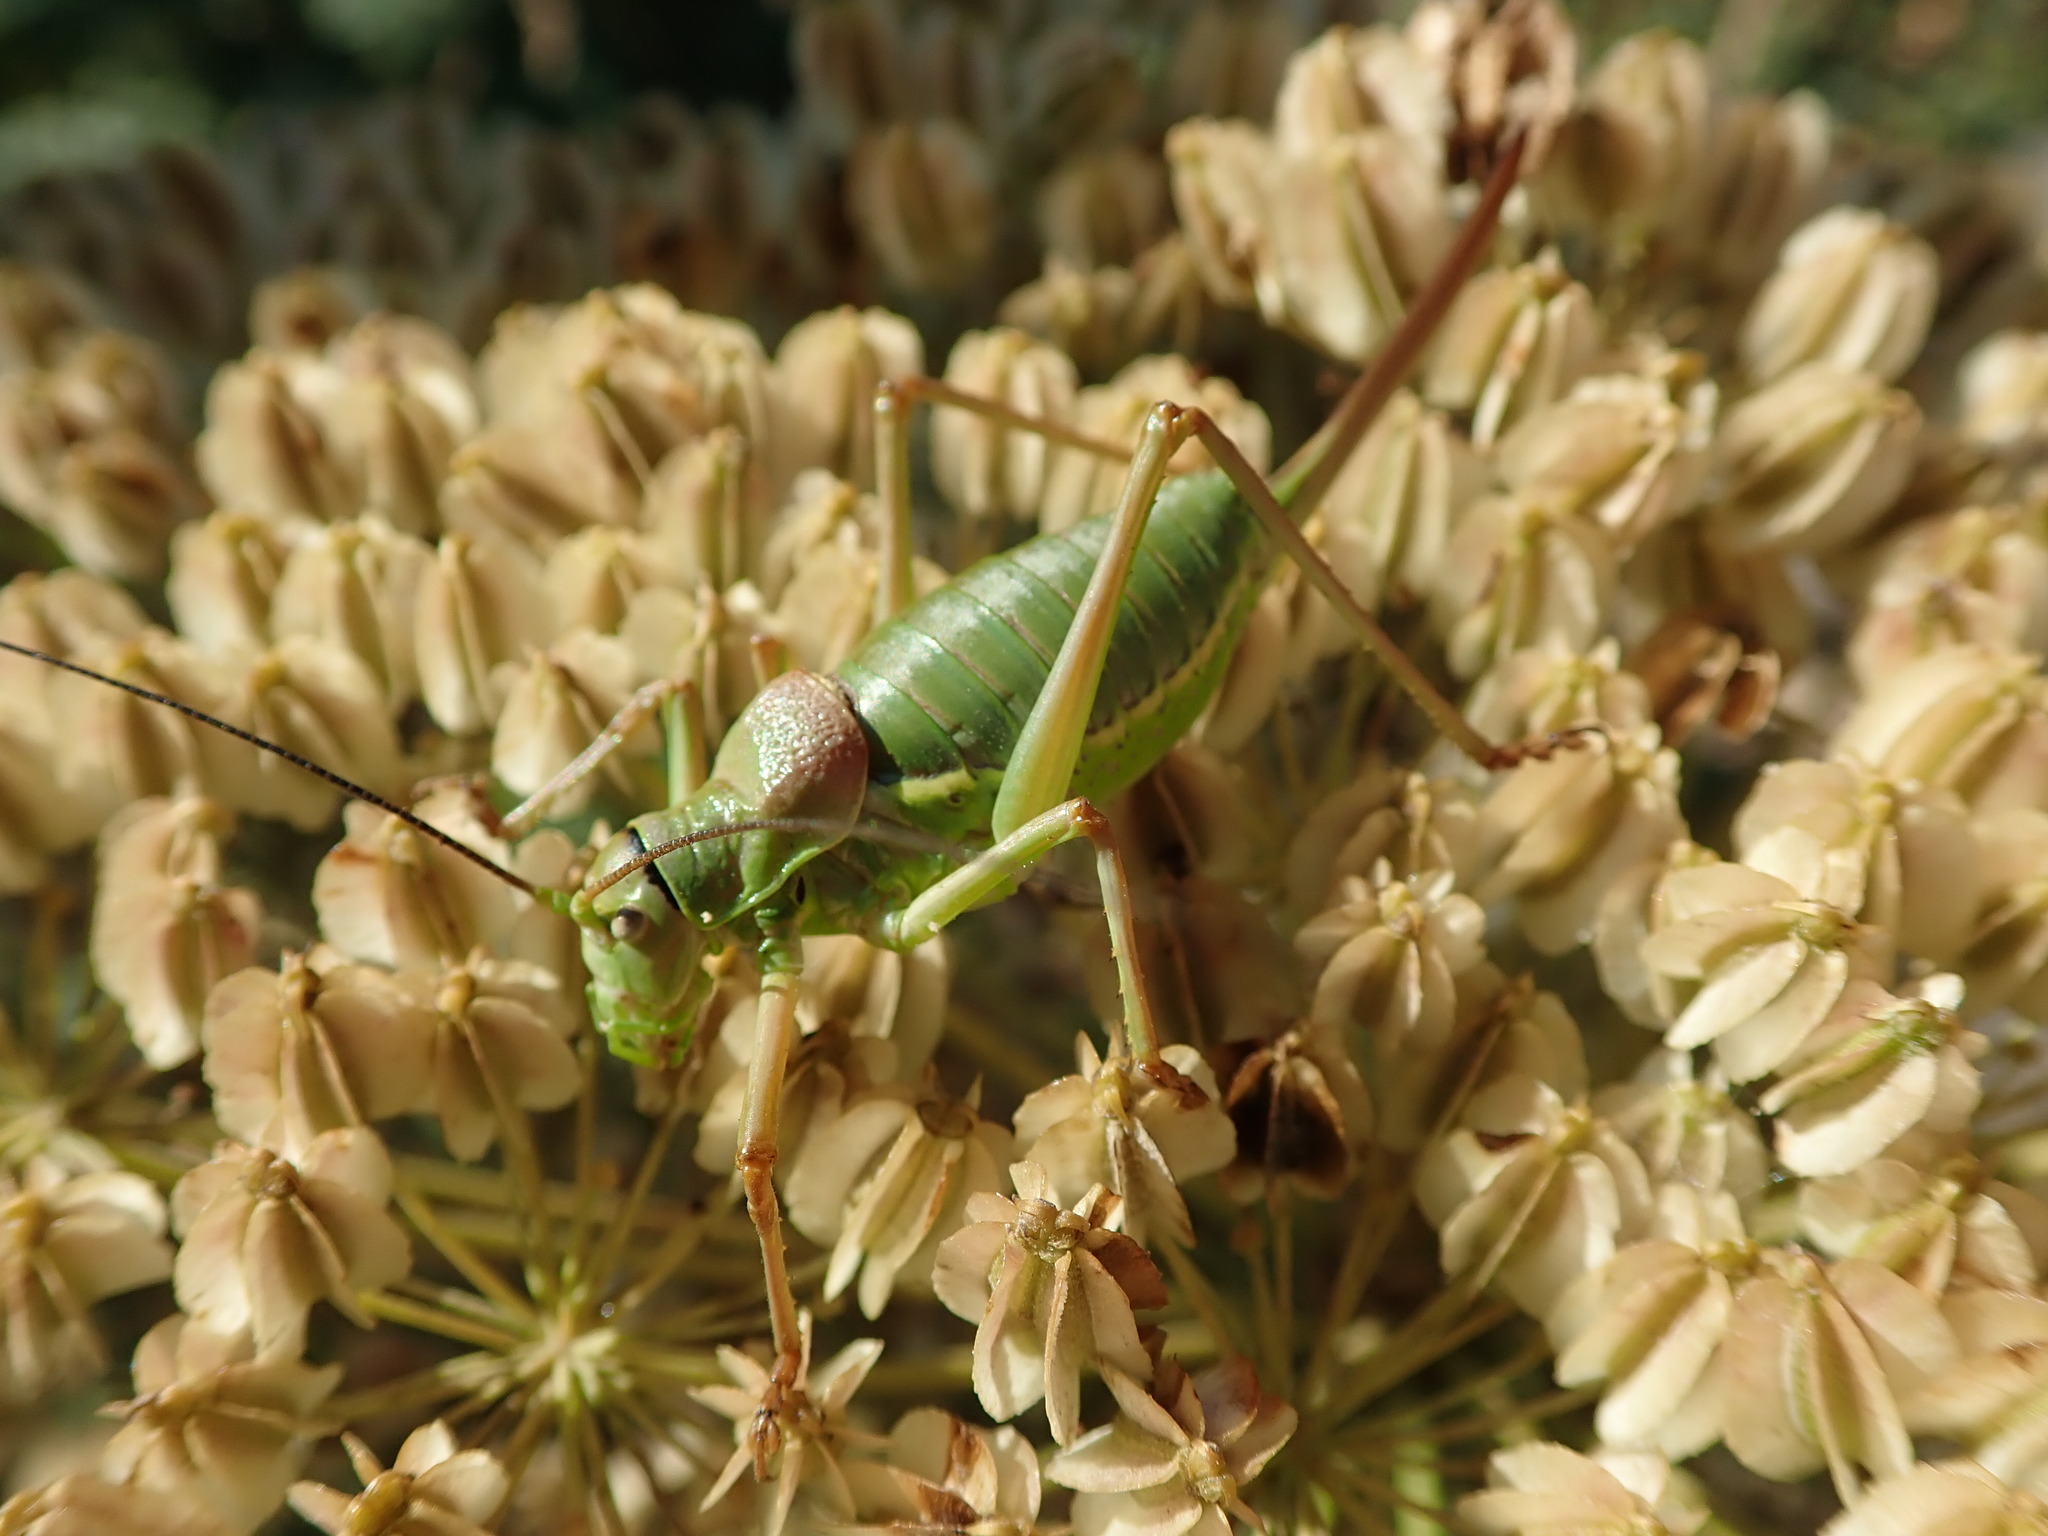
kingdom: Animalia
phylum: Arthropoda
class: Insecta
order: Orthoptera
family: Tettigoniidae
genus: Ephippiger
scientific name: Ephippiger diurnus
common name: Western saddle bush-cricket
